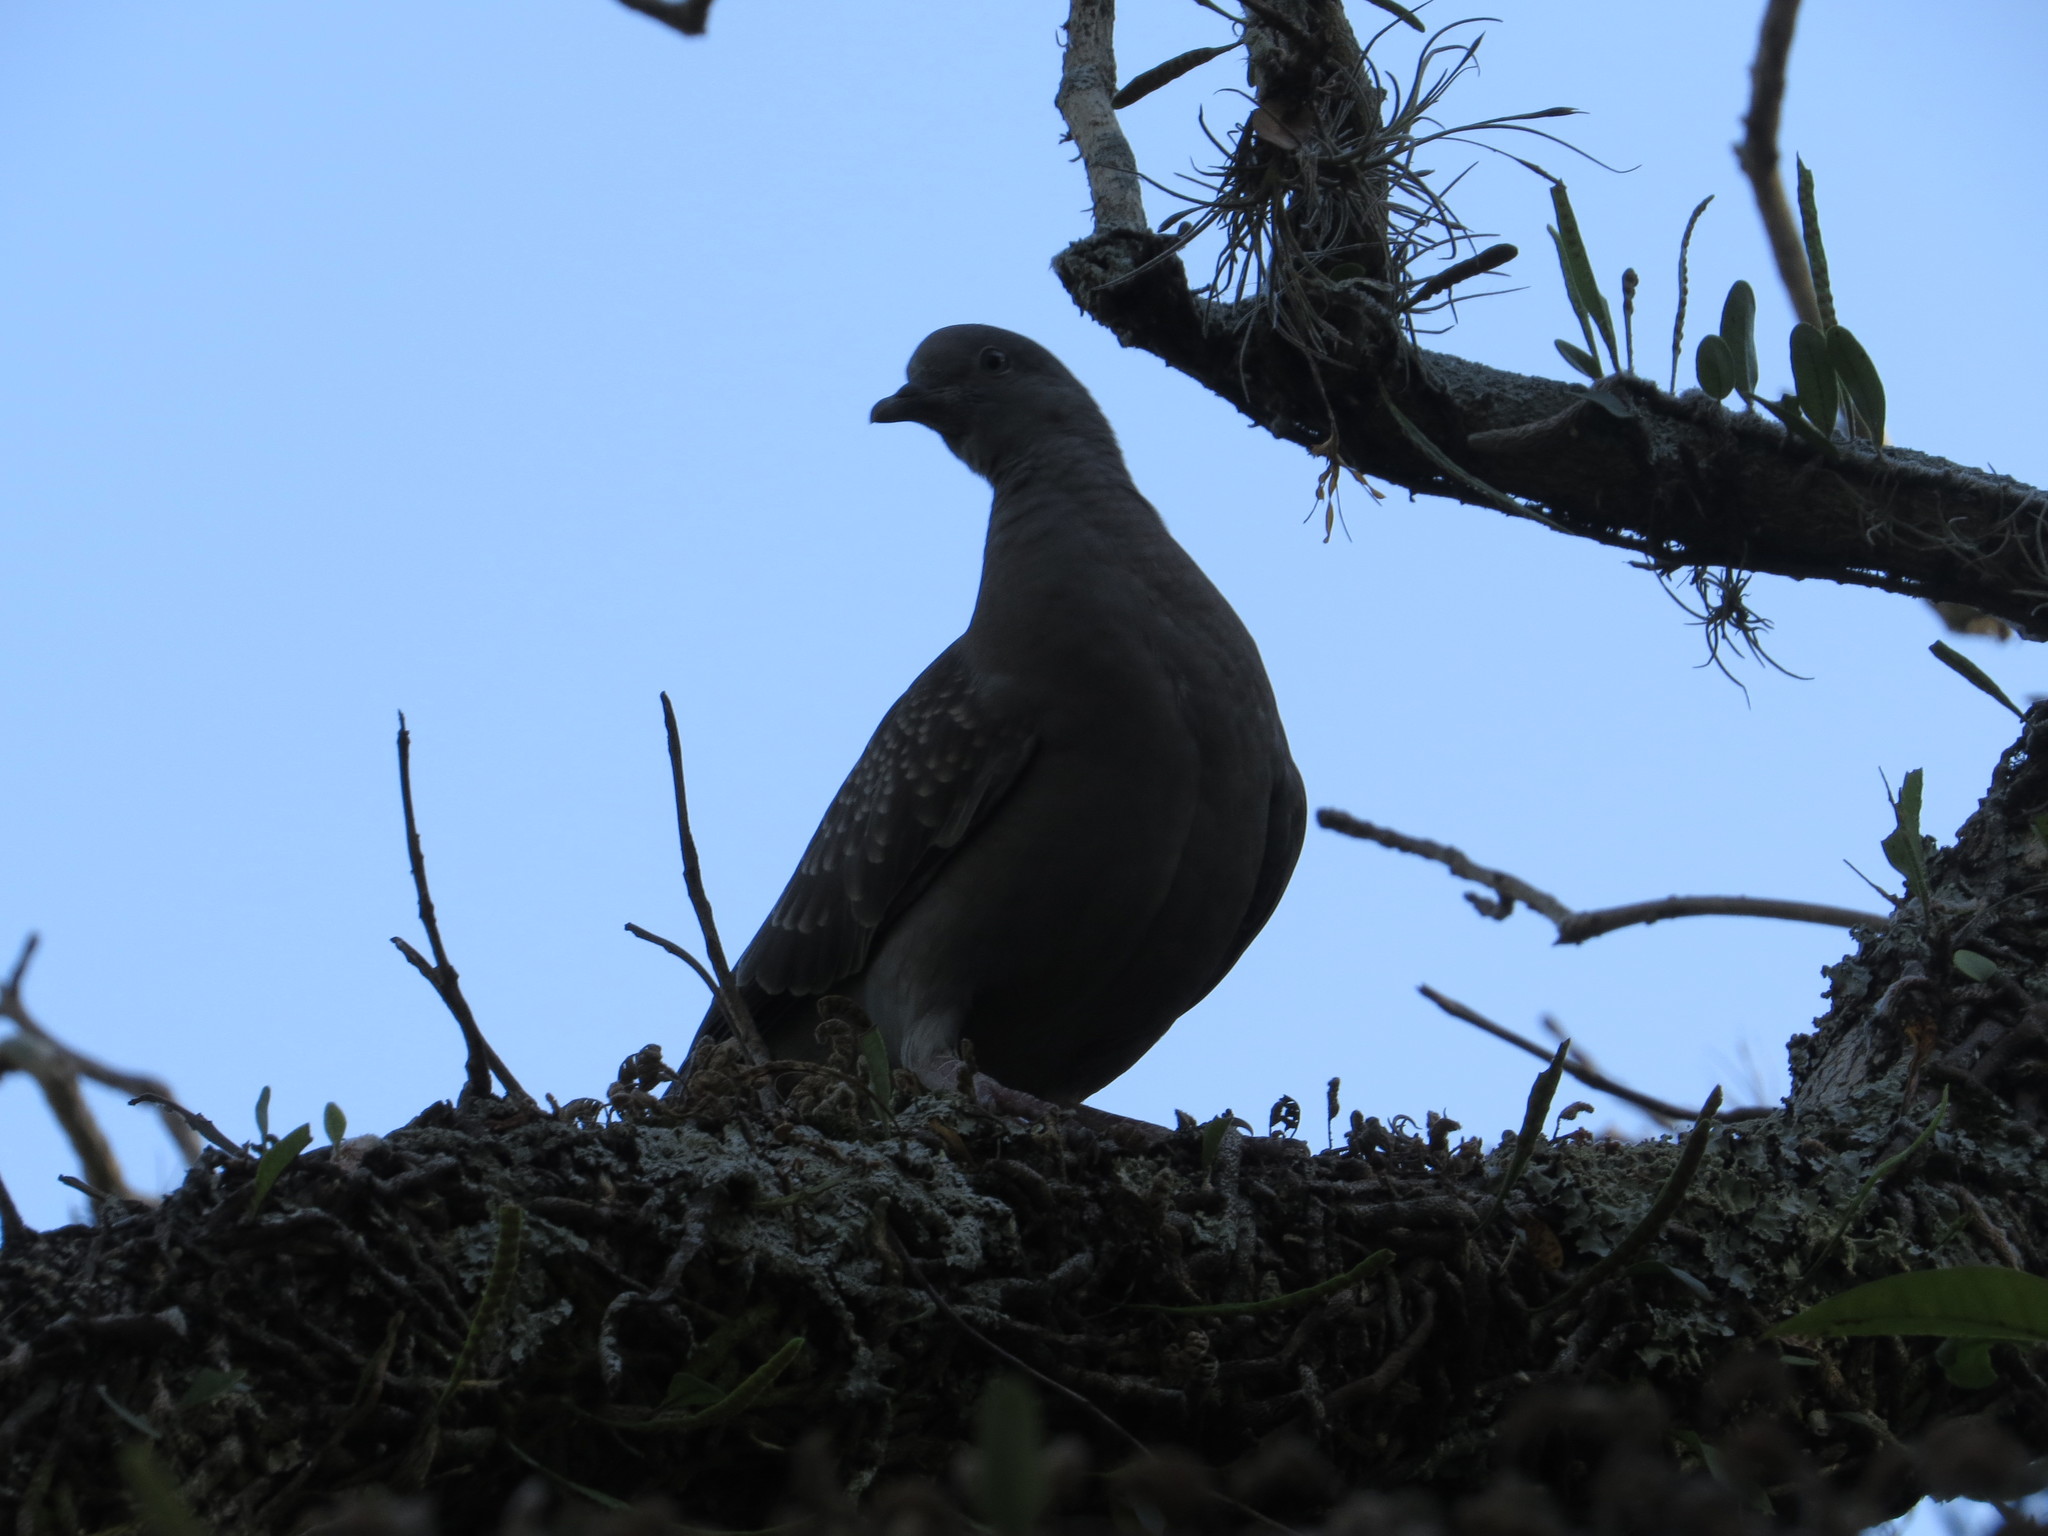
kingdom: Animalia
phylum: Chordata
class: Aves
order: Columbiformes
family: Columbidae
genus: Patagioenas
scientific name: Patagioenas maculosa
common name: Spot-winged pigeon
